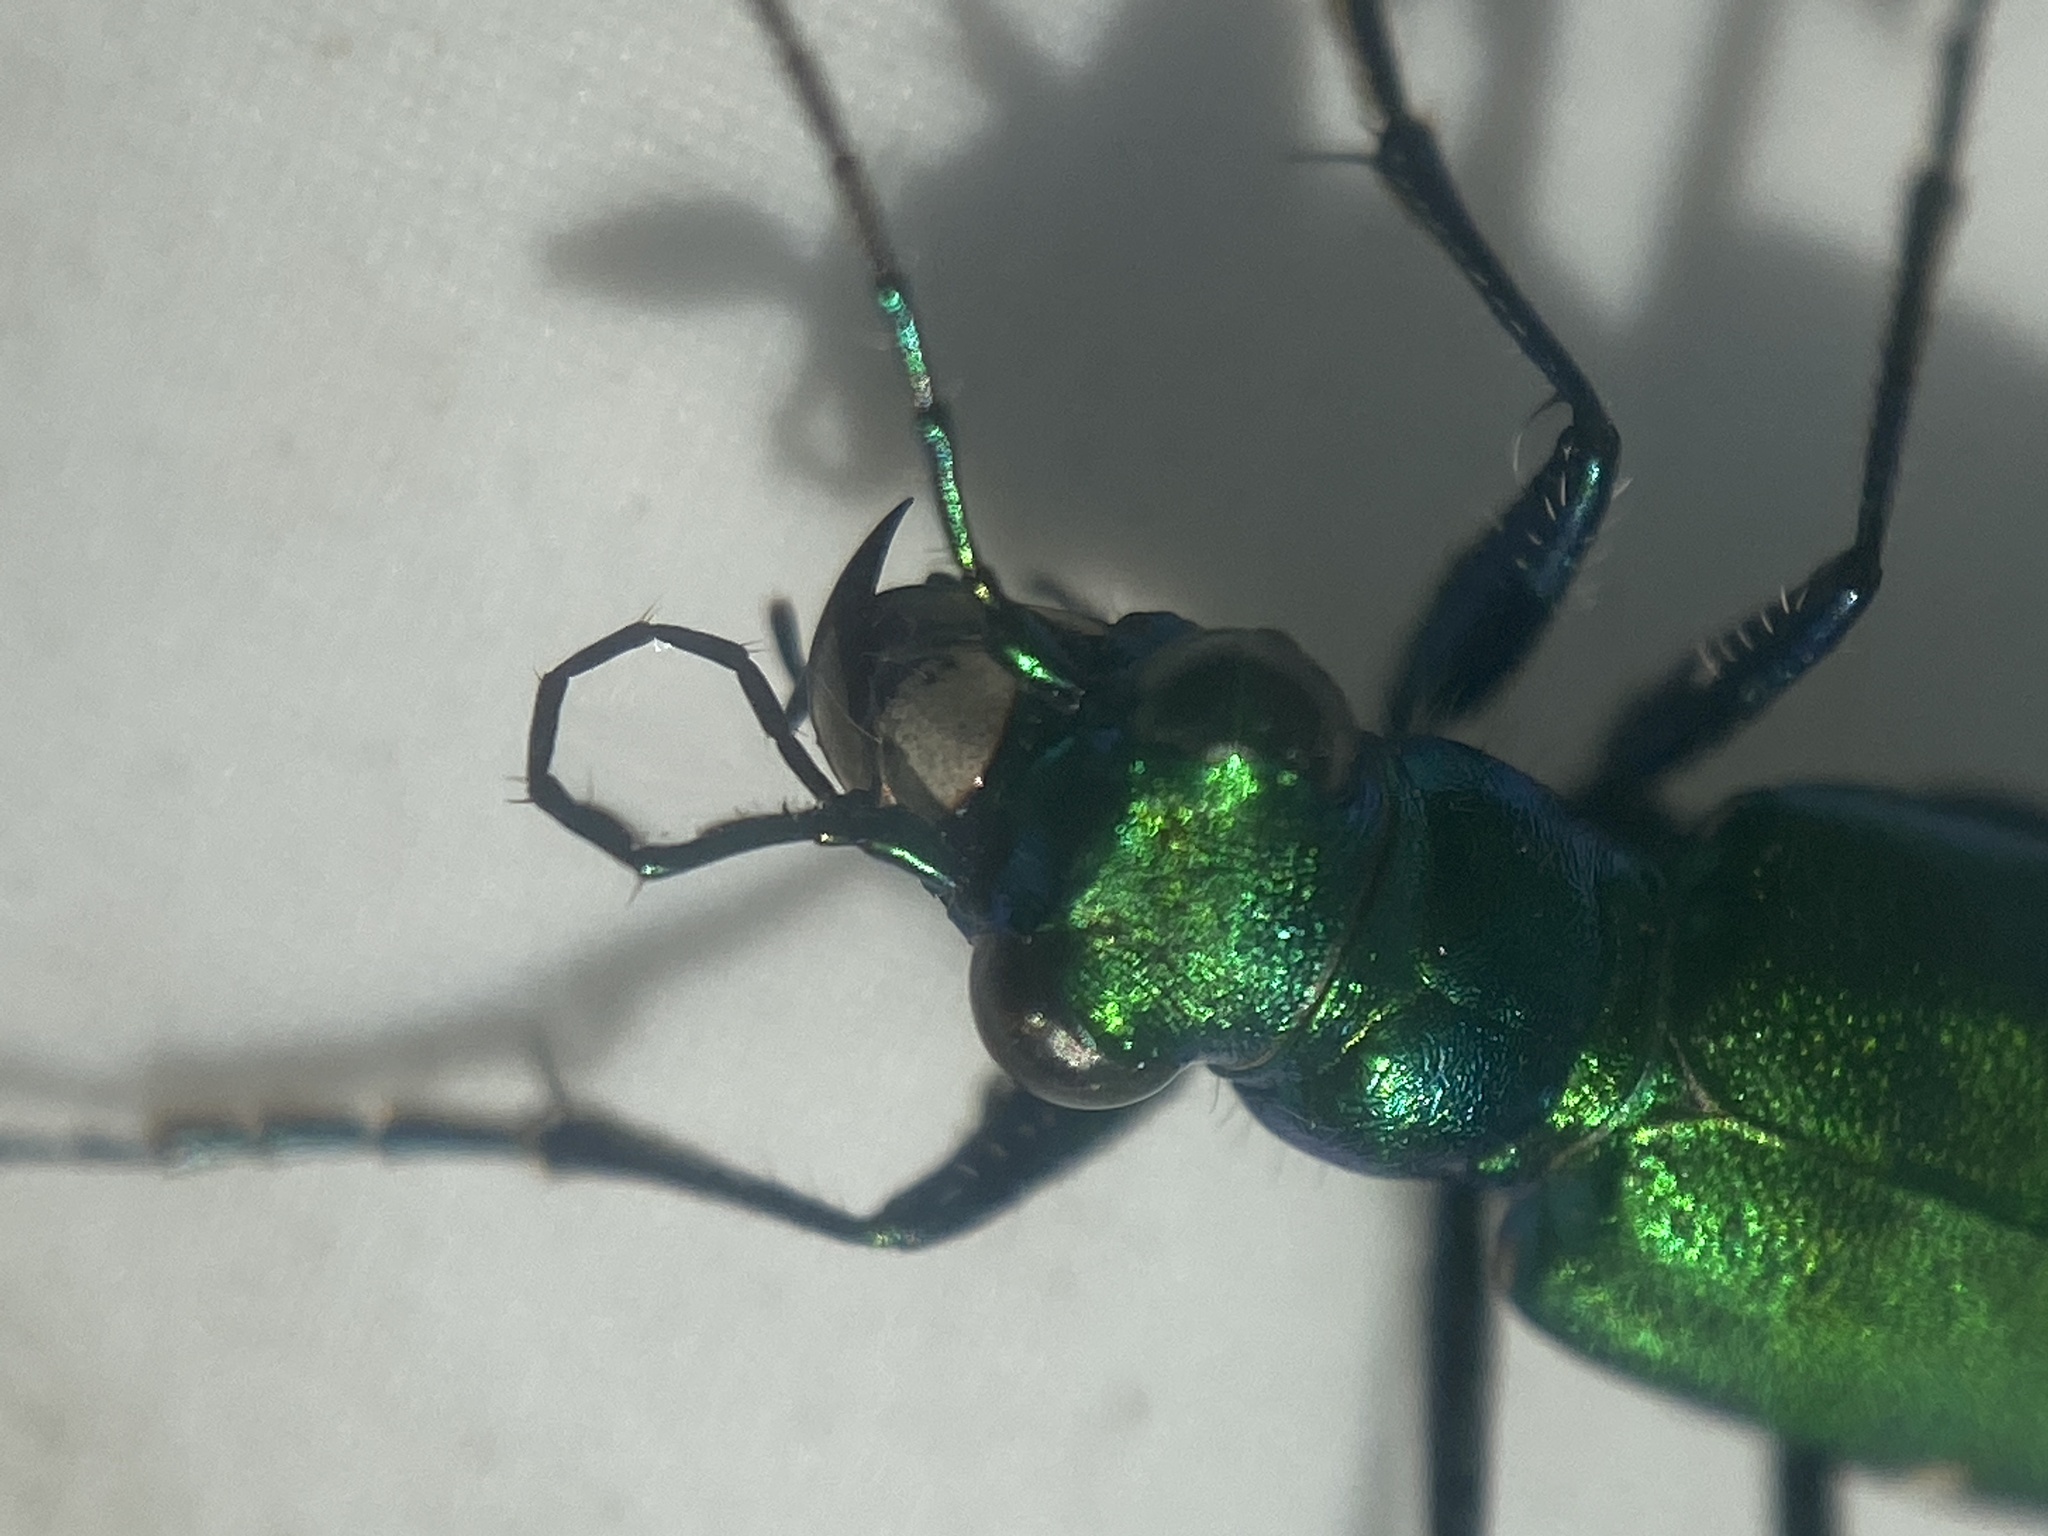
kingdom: Animalia
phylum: Arthropoda
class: Insecta
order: Coleoptera
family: Carabidae
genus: Cicindela
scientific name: Cicindela sexguttata
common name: Six-spotted tiger beetle
